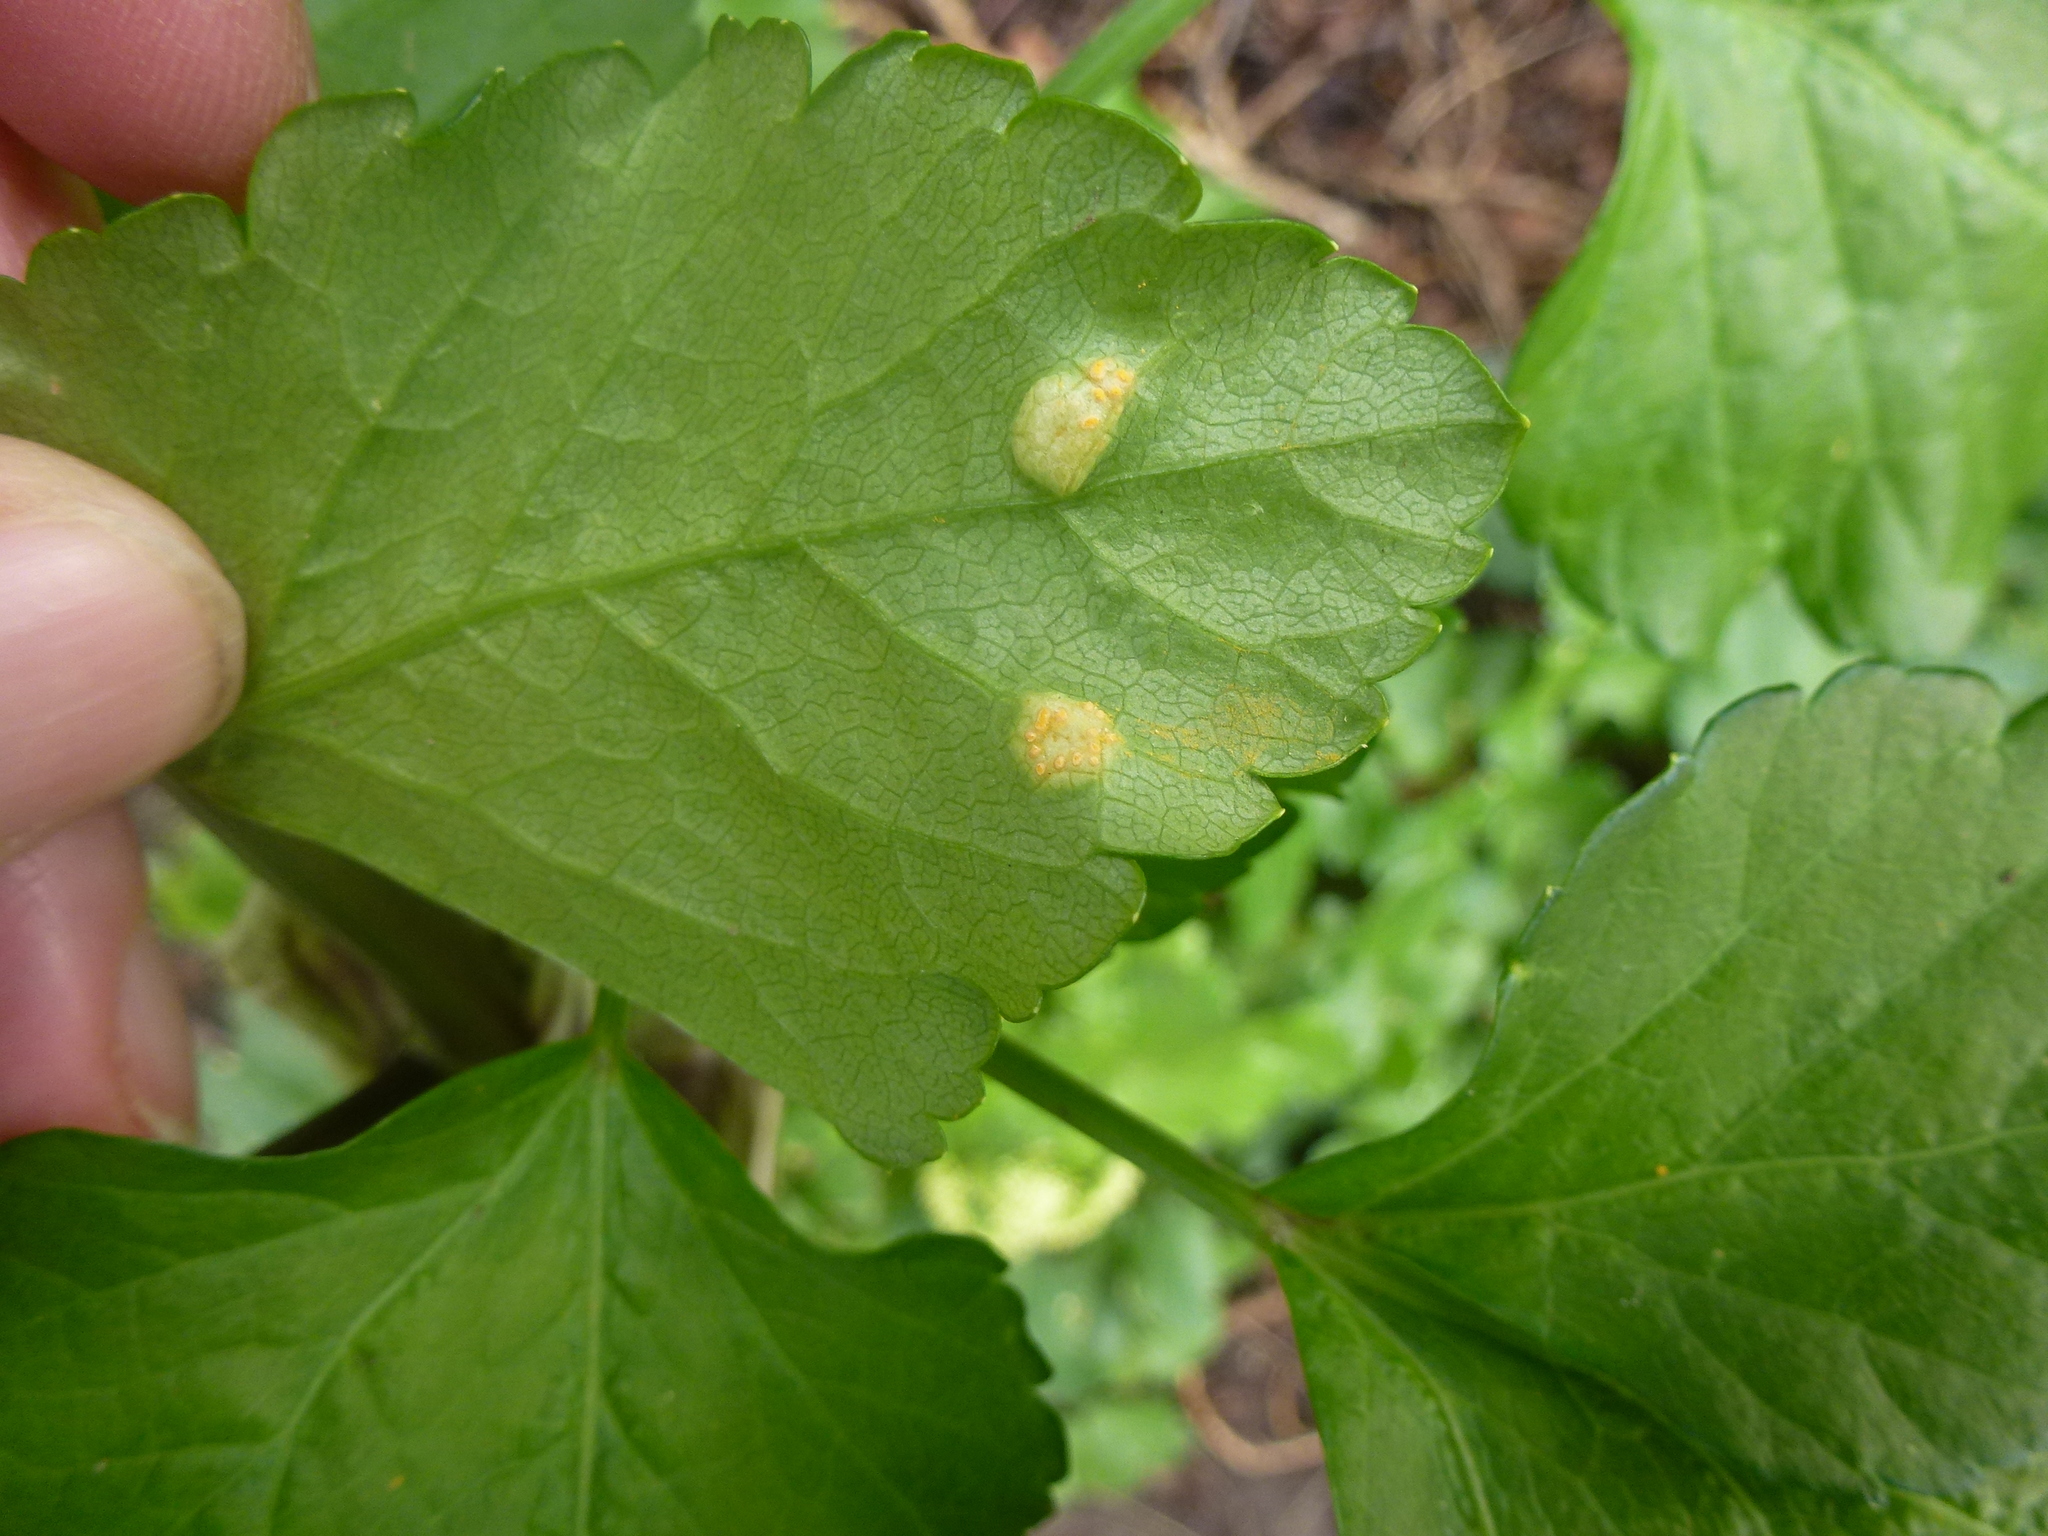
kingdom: Fungi
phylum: Basidiomycota
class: Pucciniomycetes
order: Pucciniales
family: Pucciniaceae
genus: Puccinia
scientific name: Puccinia smyrnii
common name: Alexanders rust
